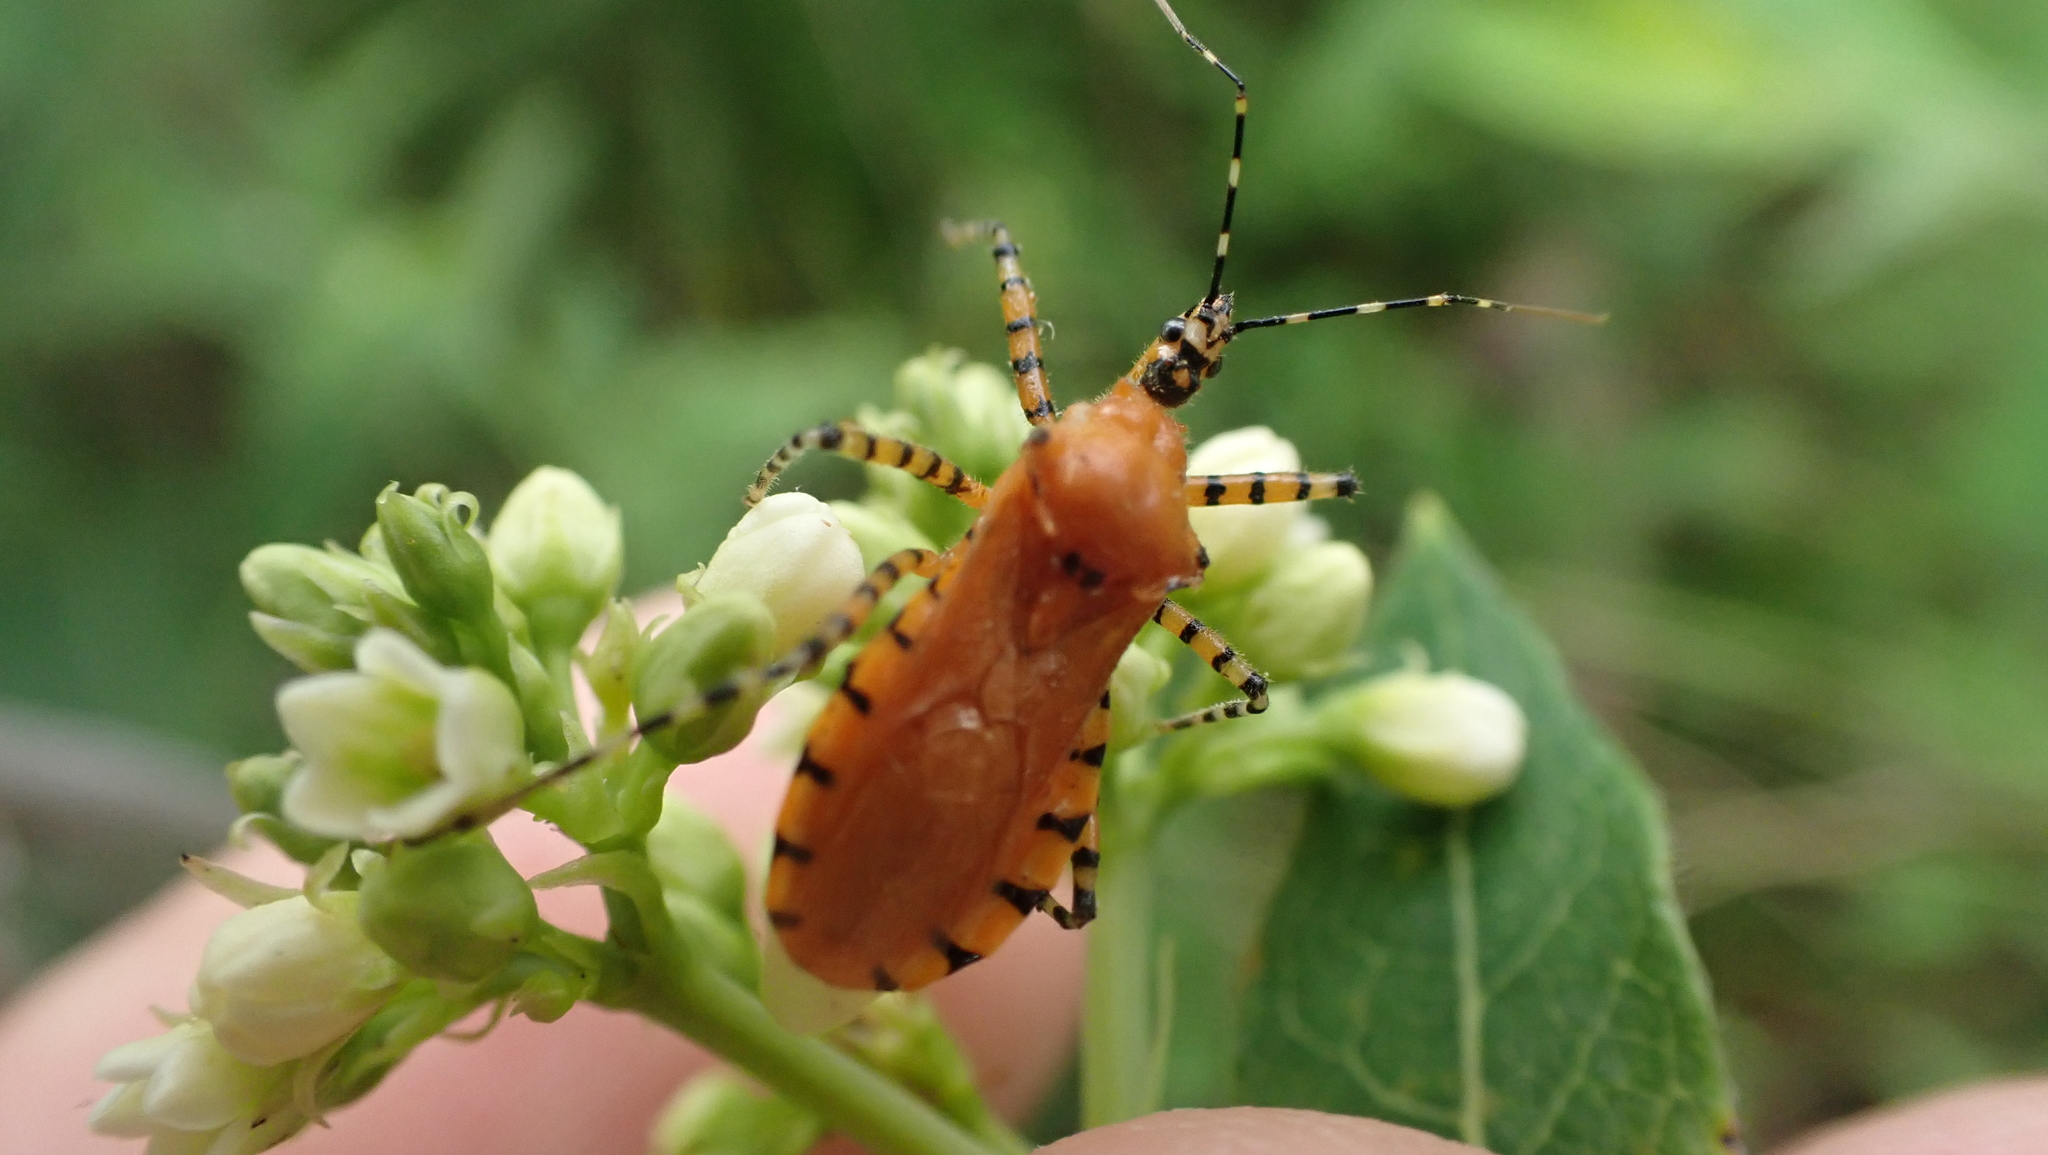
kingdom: Animalia
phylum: Arthropoda
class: Insecta
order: Hemiptera
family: Reduviidae
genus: Pselliopus
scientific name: Pselliopus barberi
